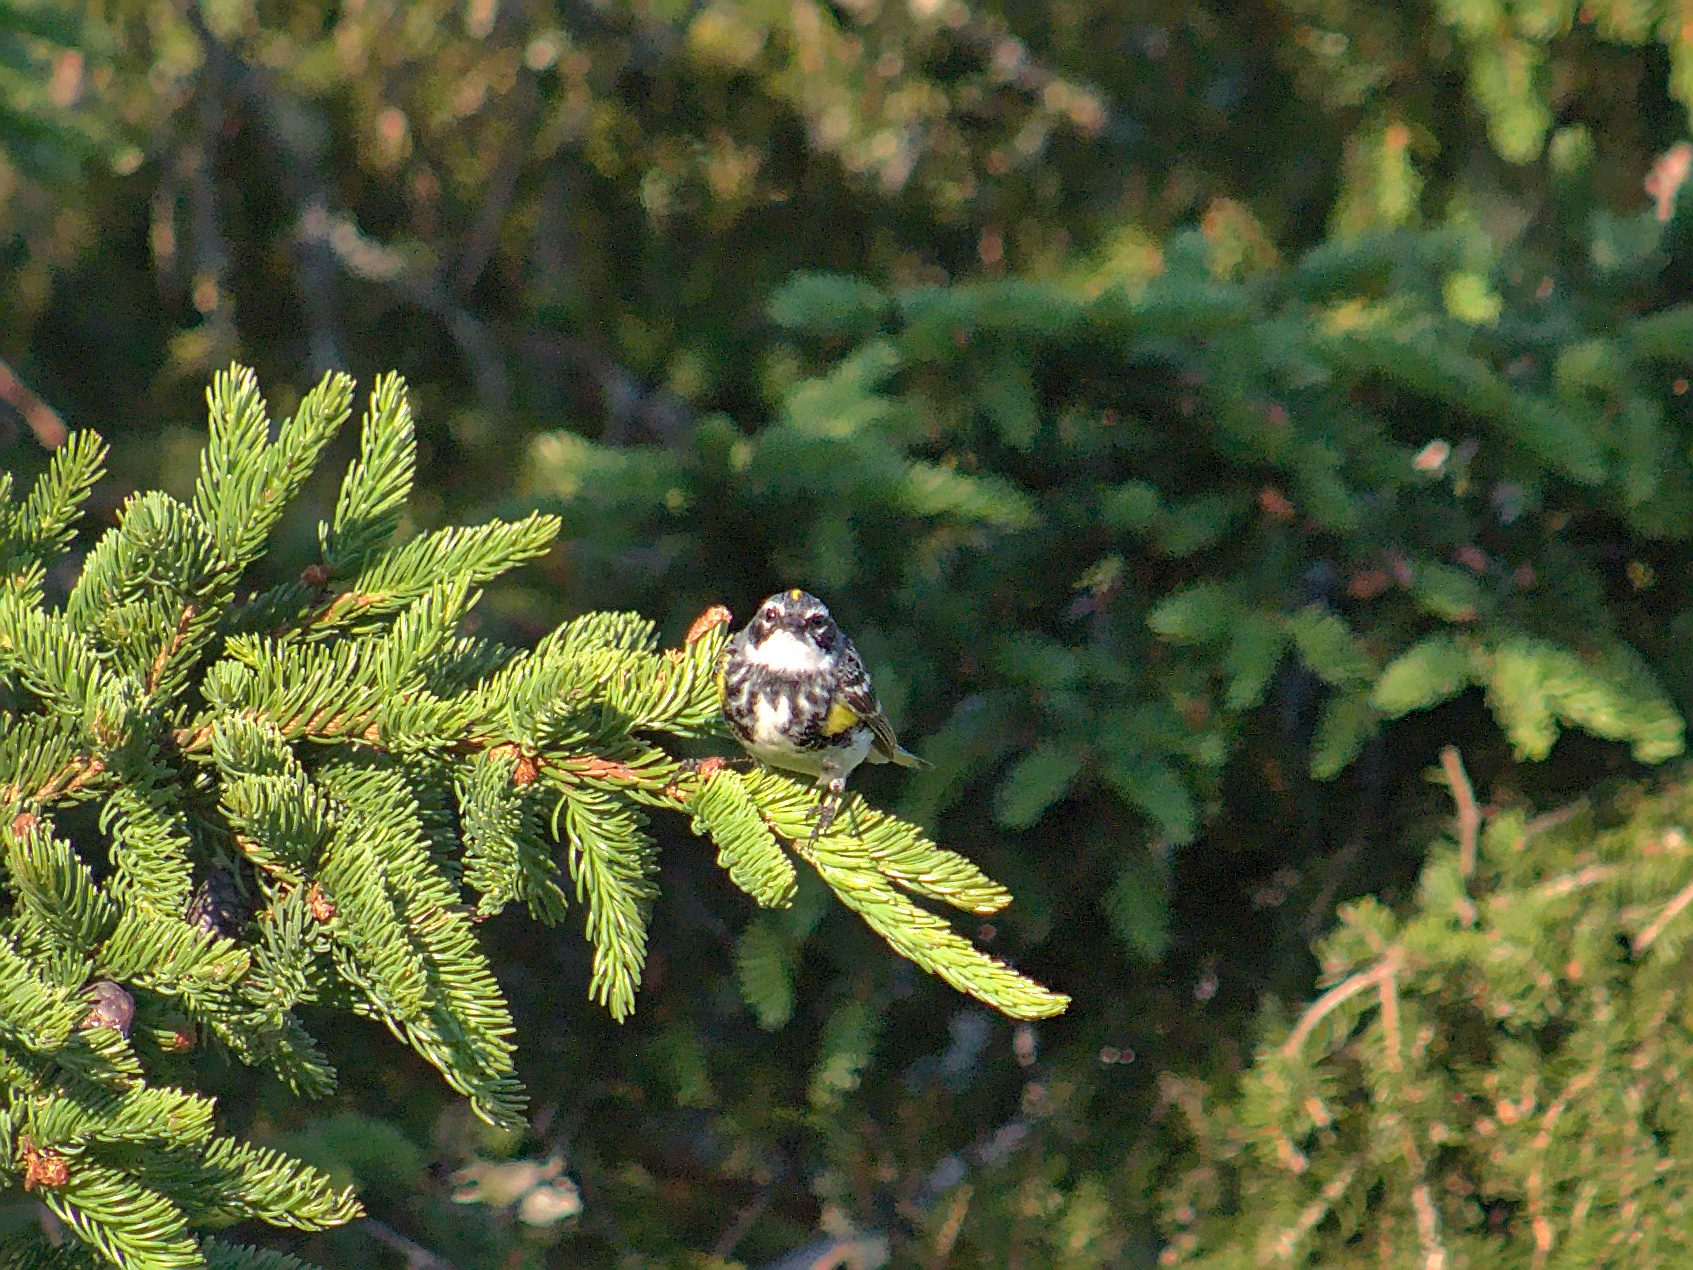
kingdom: Animalia
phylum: Chordata
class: Aves
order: Passeriformes
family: Parulidae
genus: Setophaga
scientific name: Setophaga coronata
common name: Myrtle warbler
